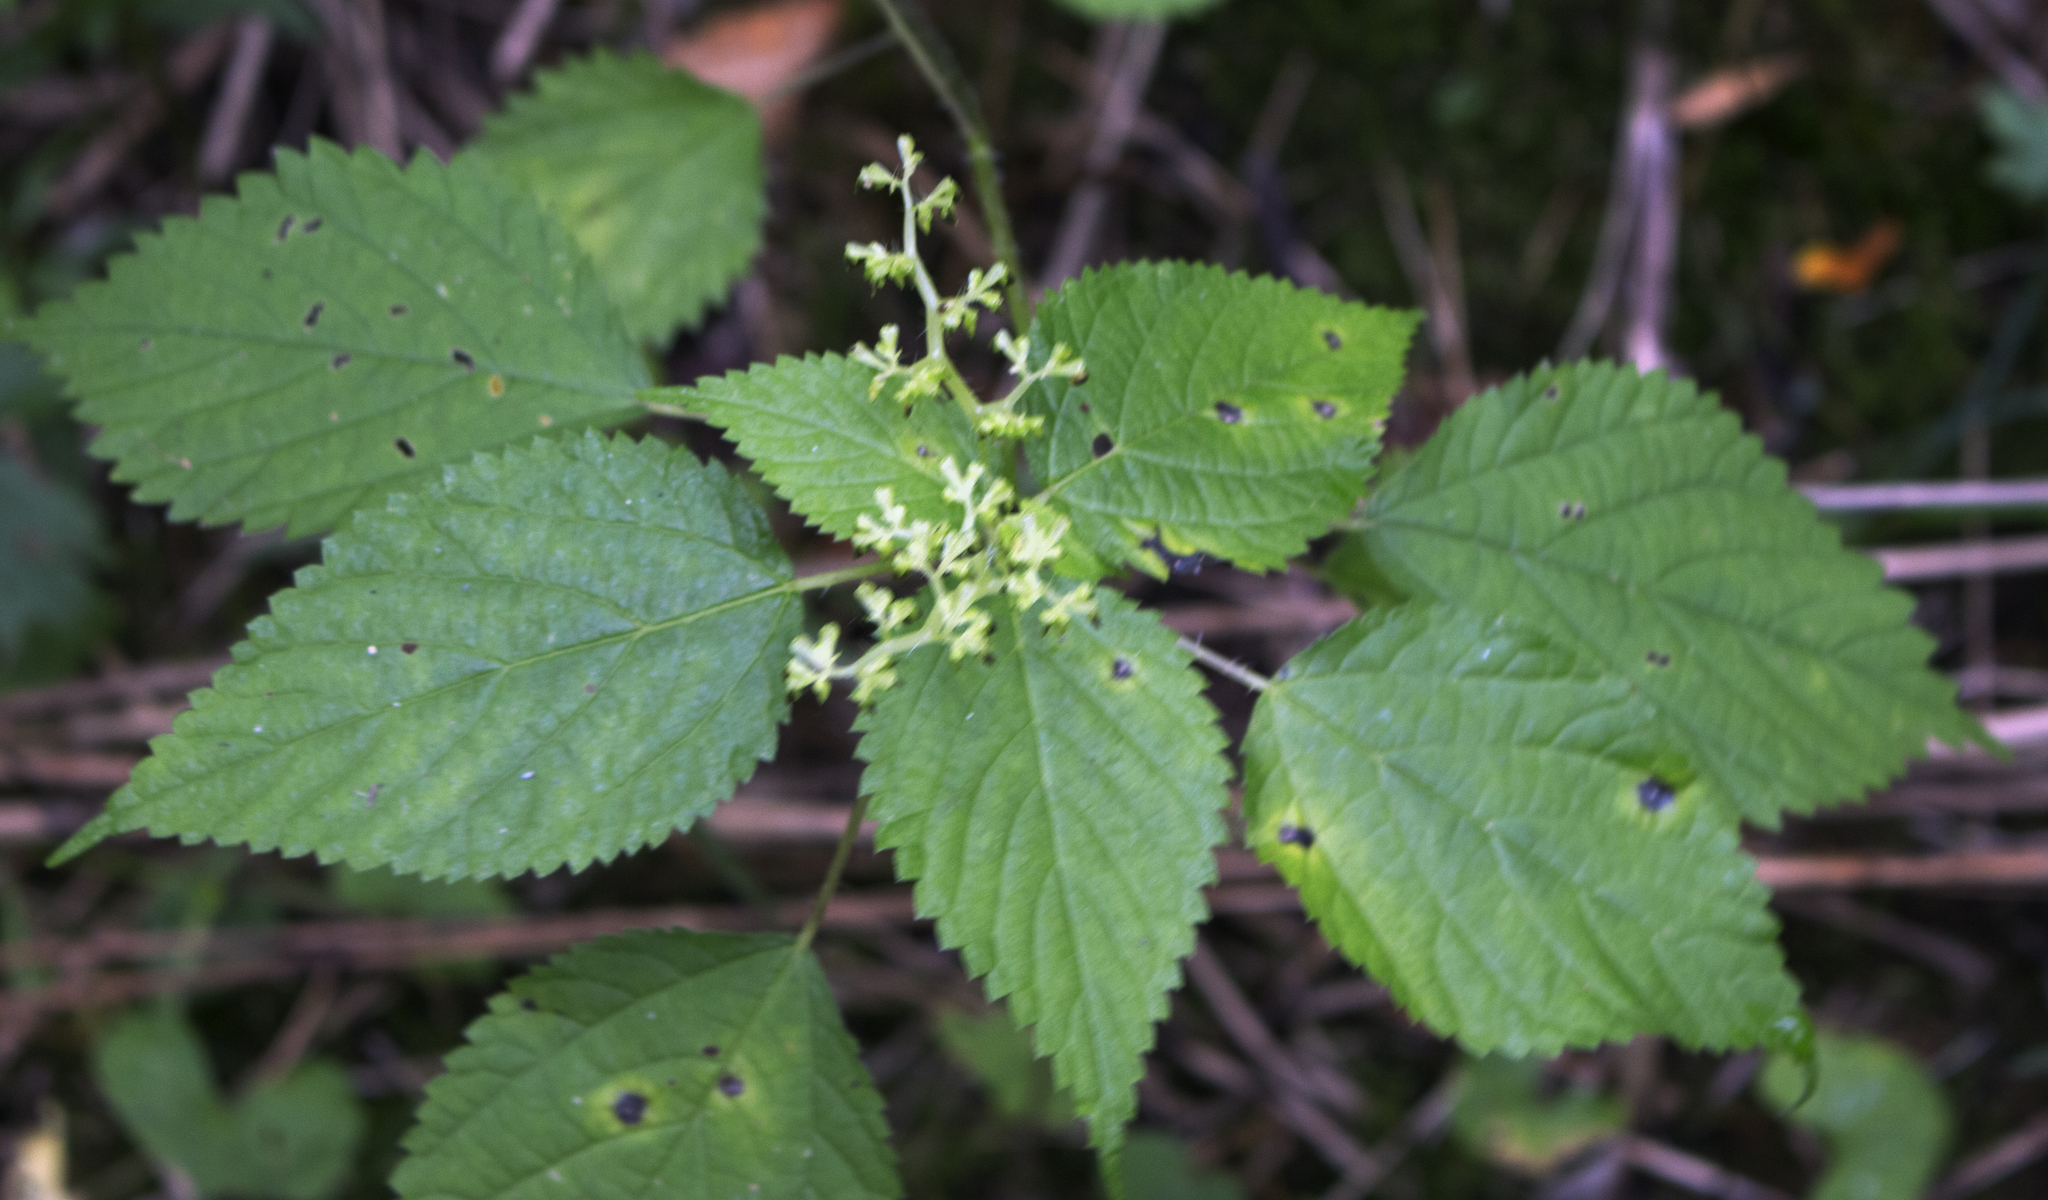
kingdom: Plantae
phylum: Tracheophyta
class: Magnoliopsida
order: Rosales
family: Urticaceae
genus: Laportea
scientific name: Laportea canadensis
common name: Canada nettle
